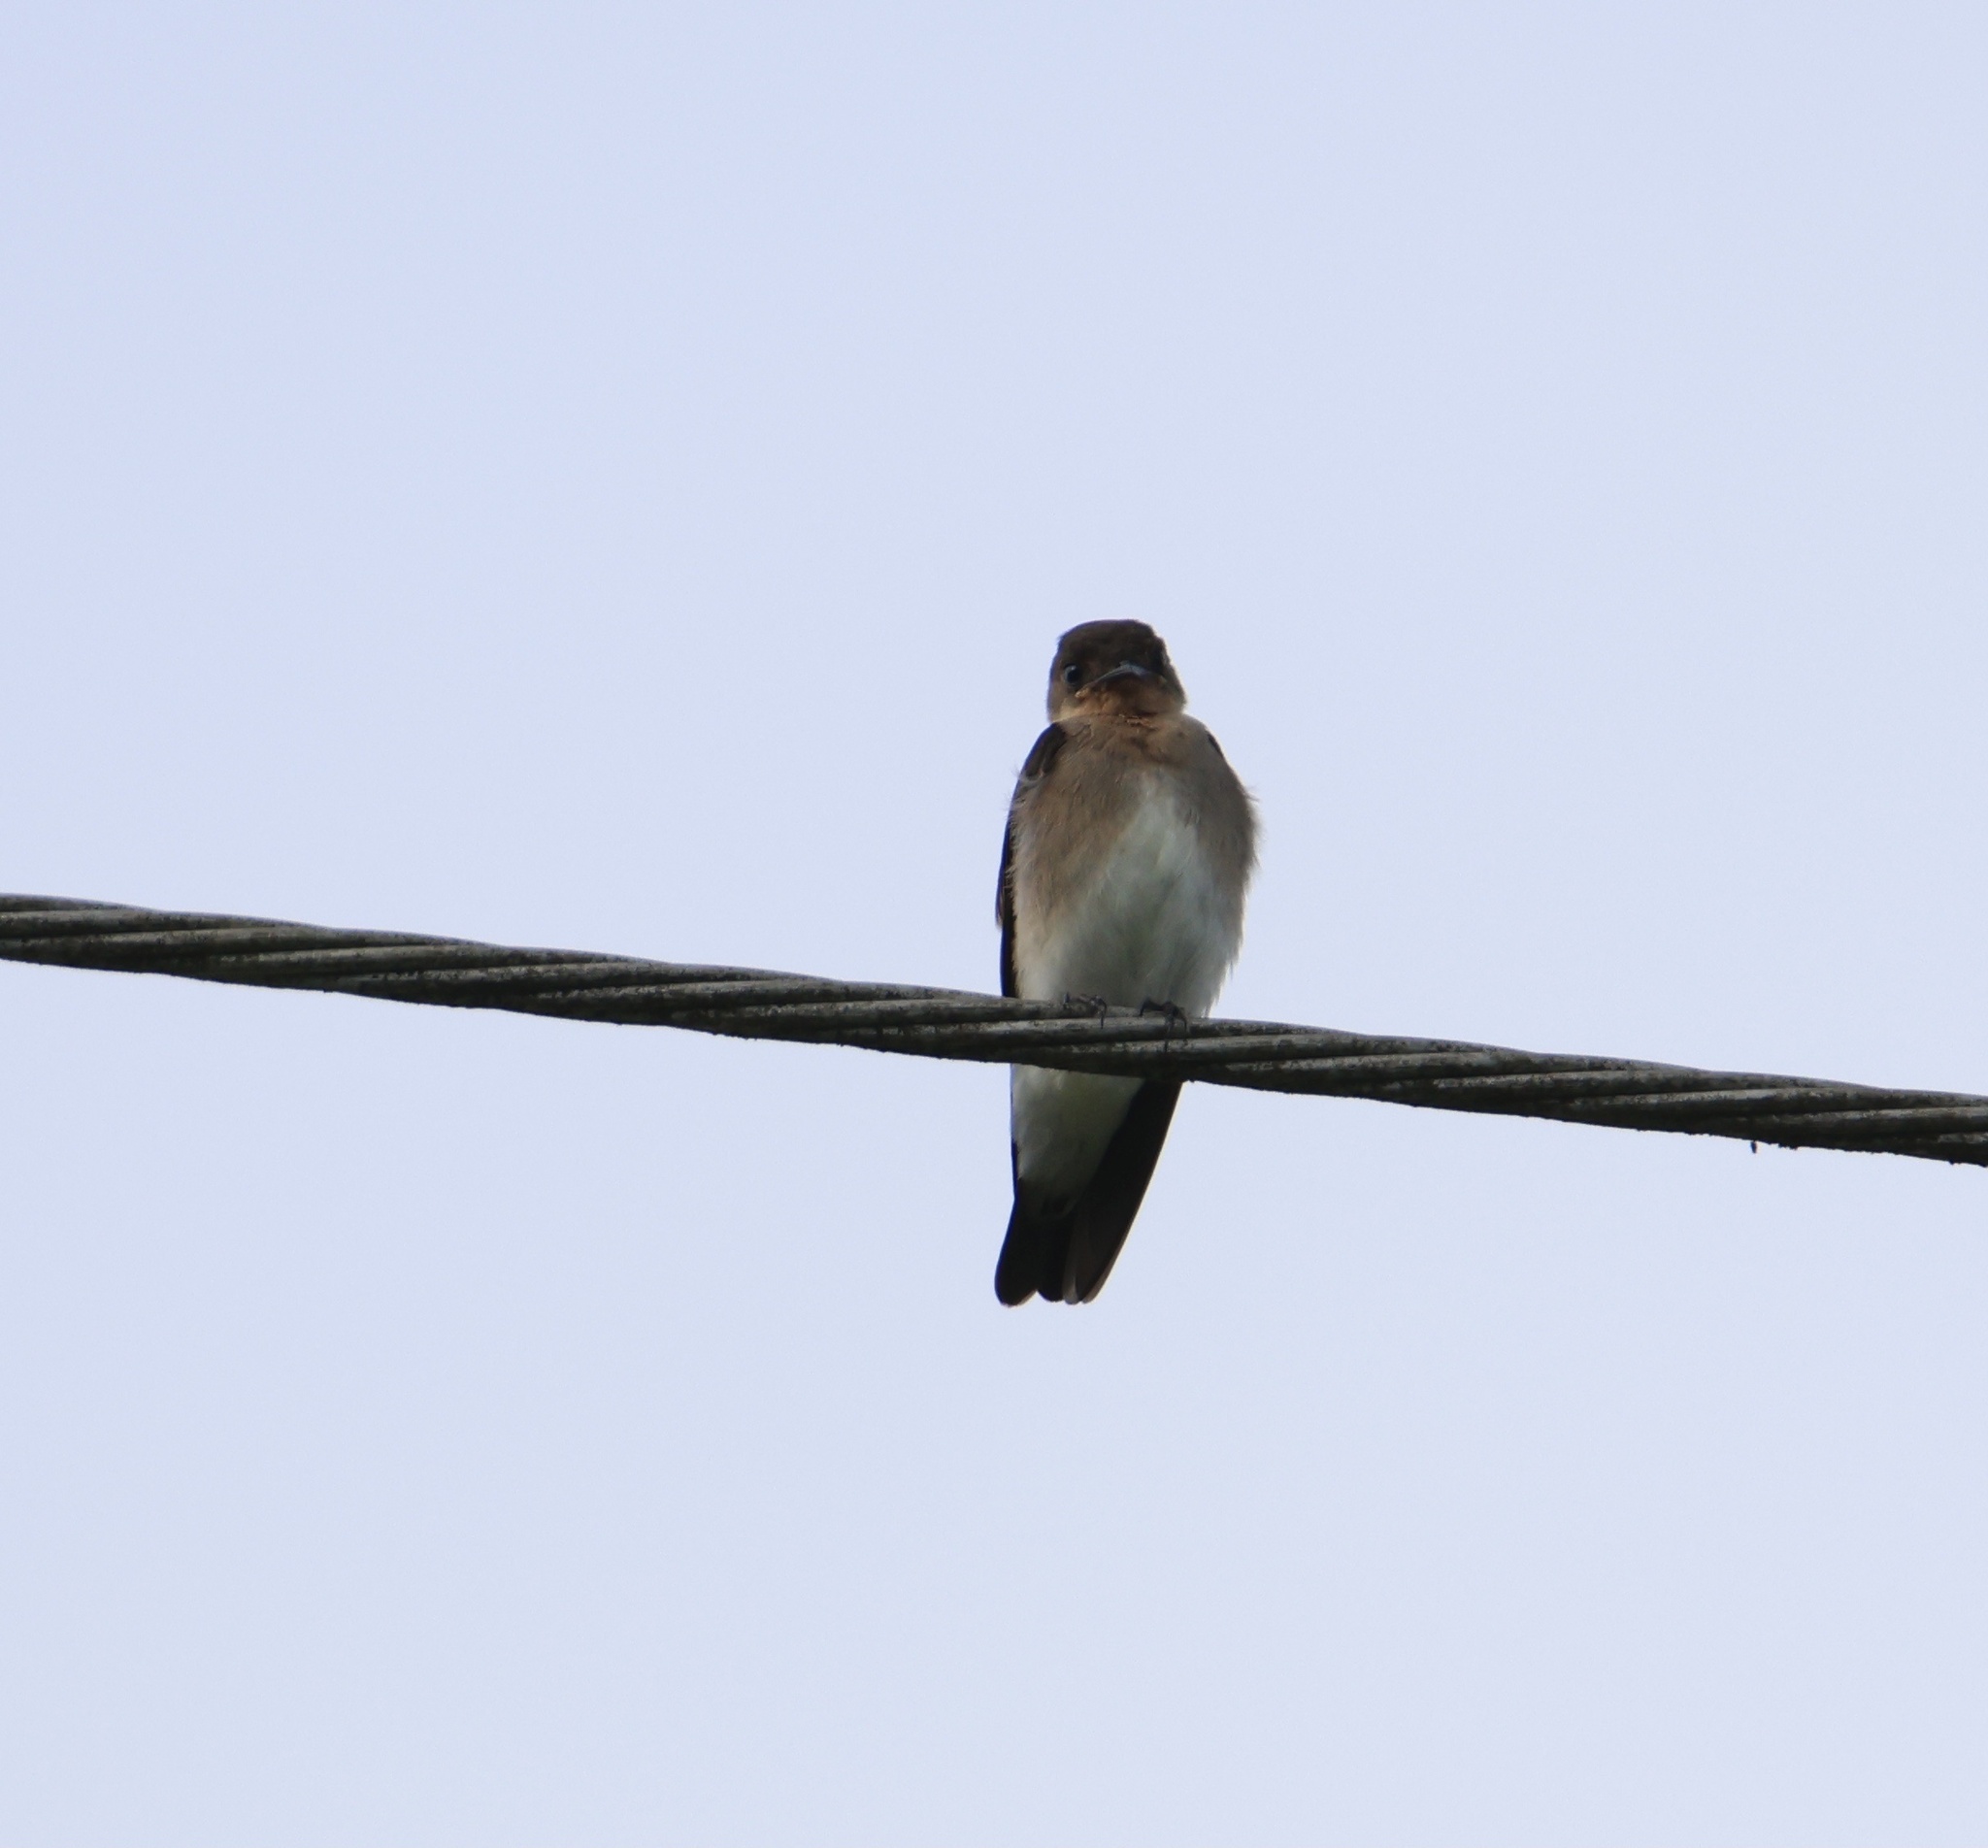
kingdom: Animalia
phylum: Chordata
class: Aves
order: Passeriformes
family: Hirundinidae
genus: Stelgidopteryx
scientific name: Stelgidopteryx ruficollis
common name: Southern rough-winged swallow
